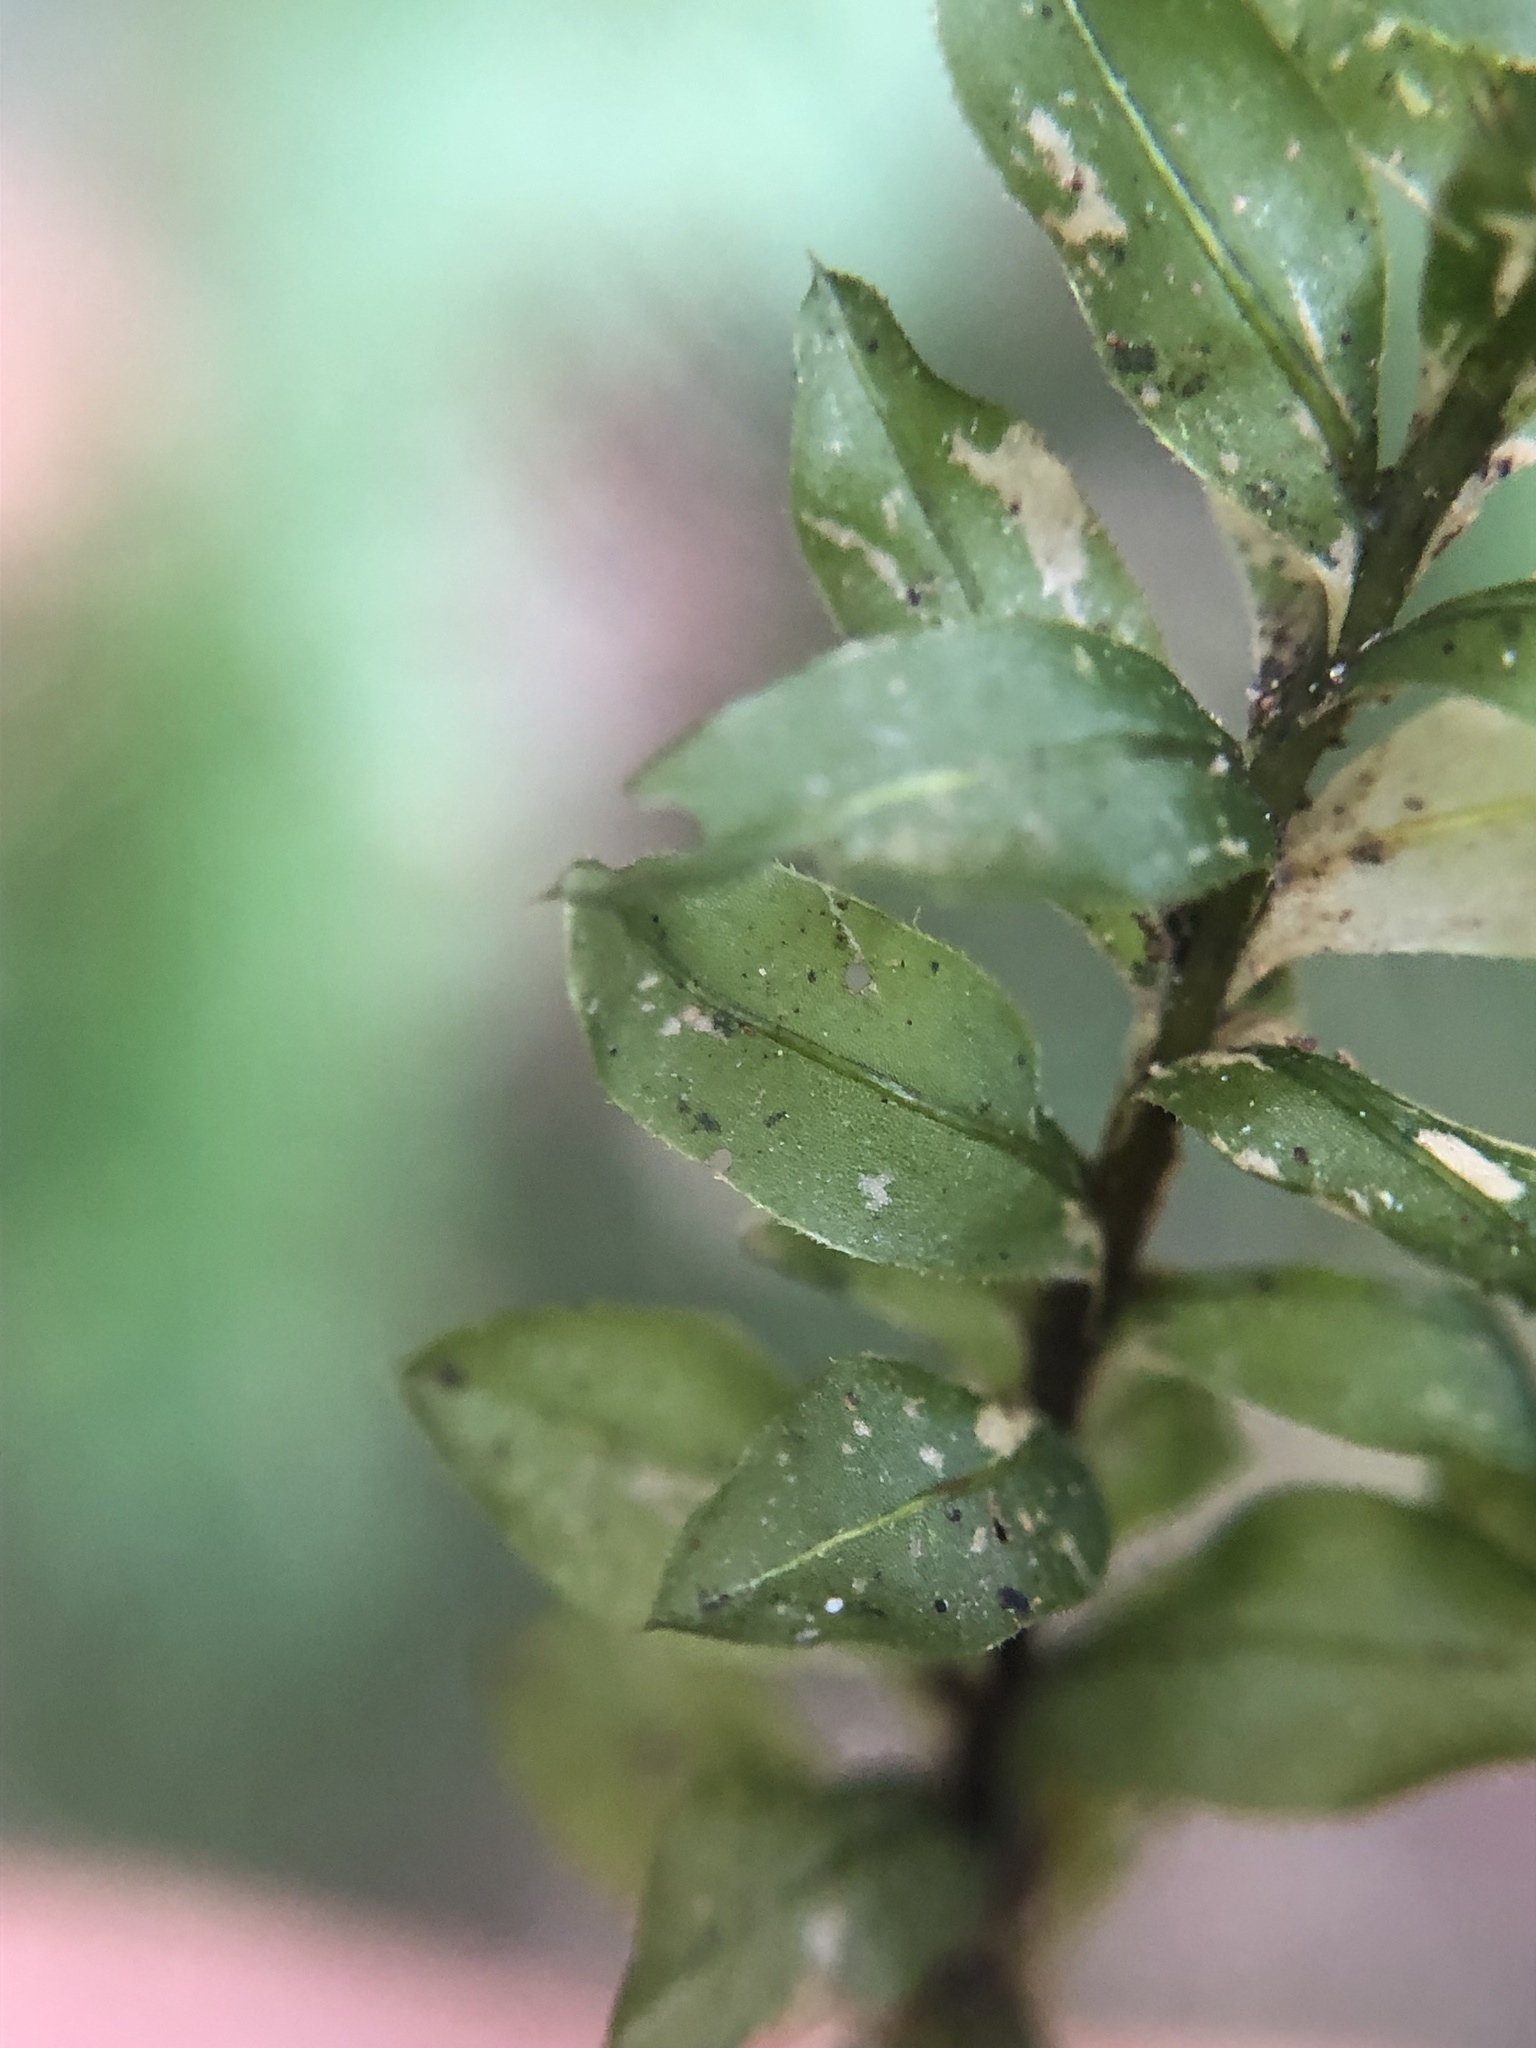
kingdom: Plantae
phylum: Bryophyta
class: Bryopsida
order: Bryales
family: Mniaceae
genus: Plagiomnium
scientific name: Plagiomnium insigne
